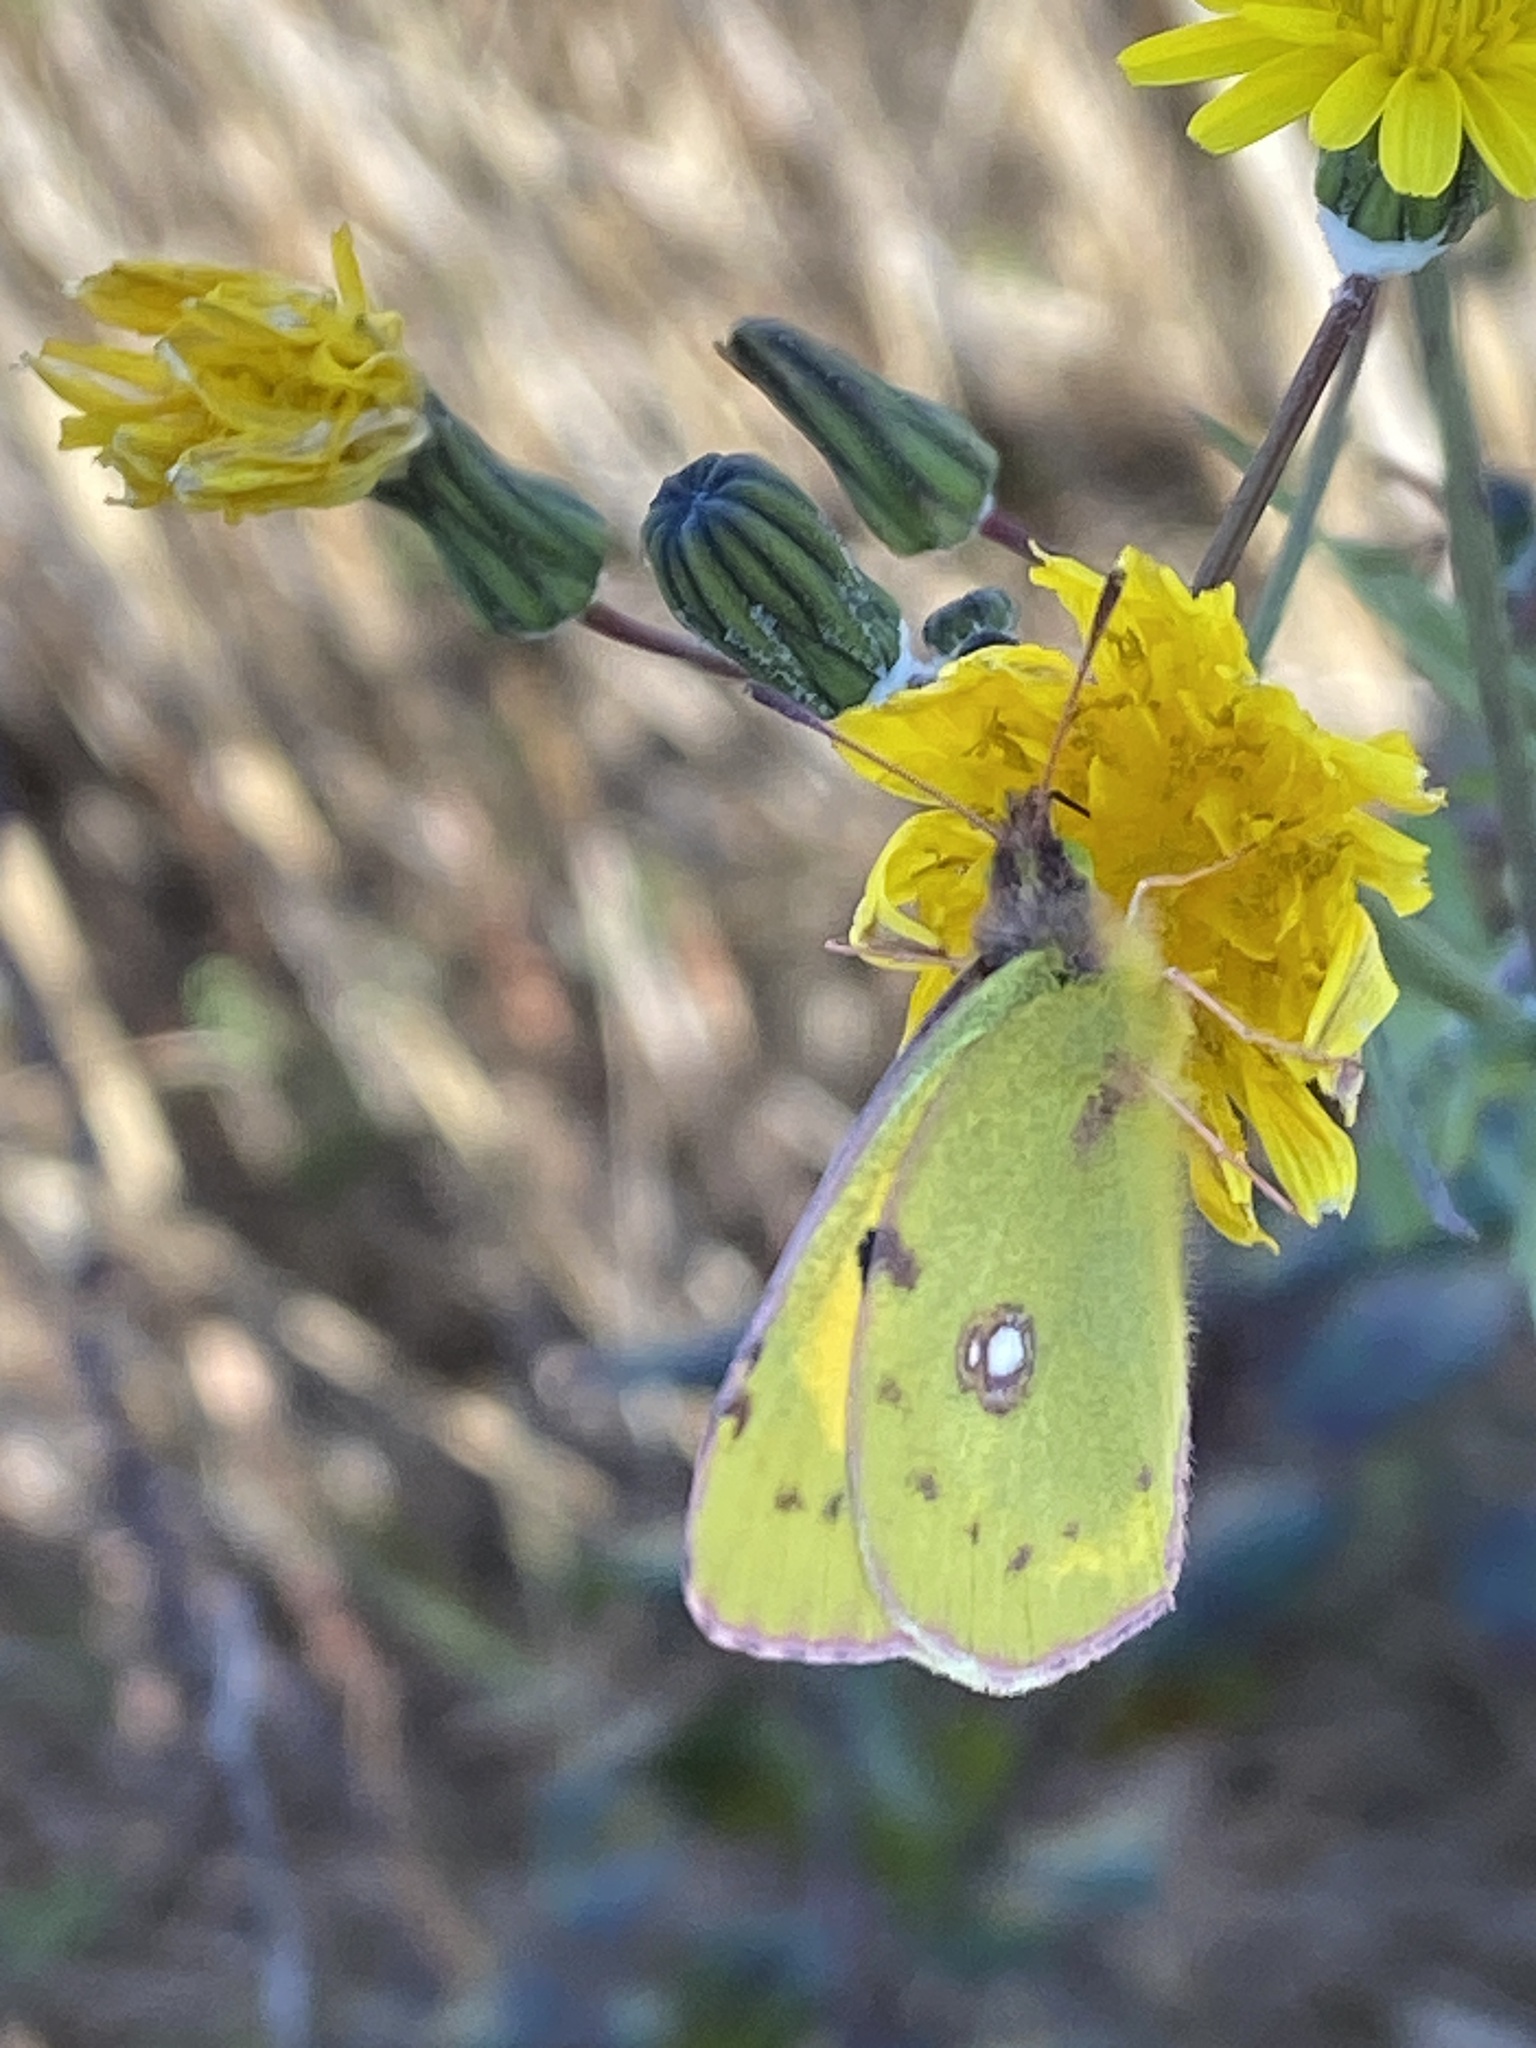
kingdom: Animalia
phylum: Arthropoda
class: Insecta
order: Lepidoptera
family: Pieridae
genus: Colias
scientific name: Colias croceus
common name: Clouded yellow
